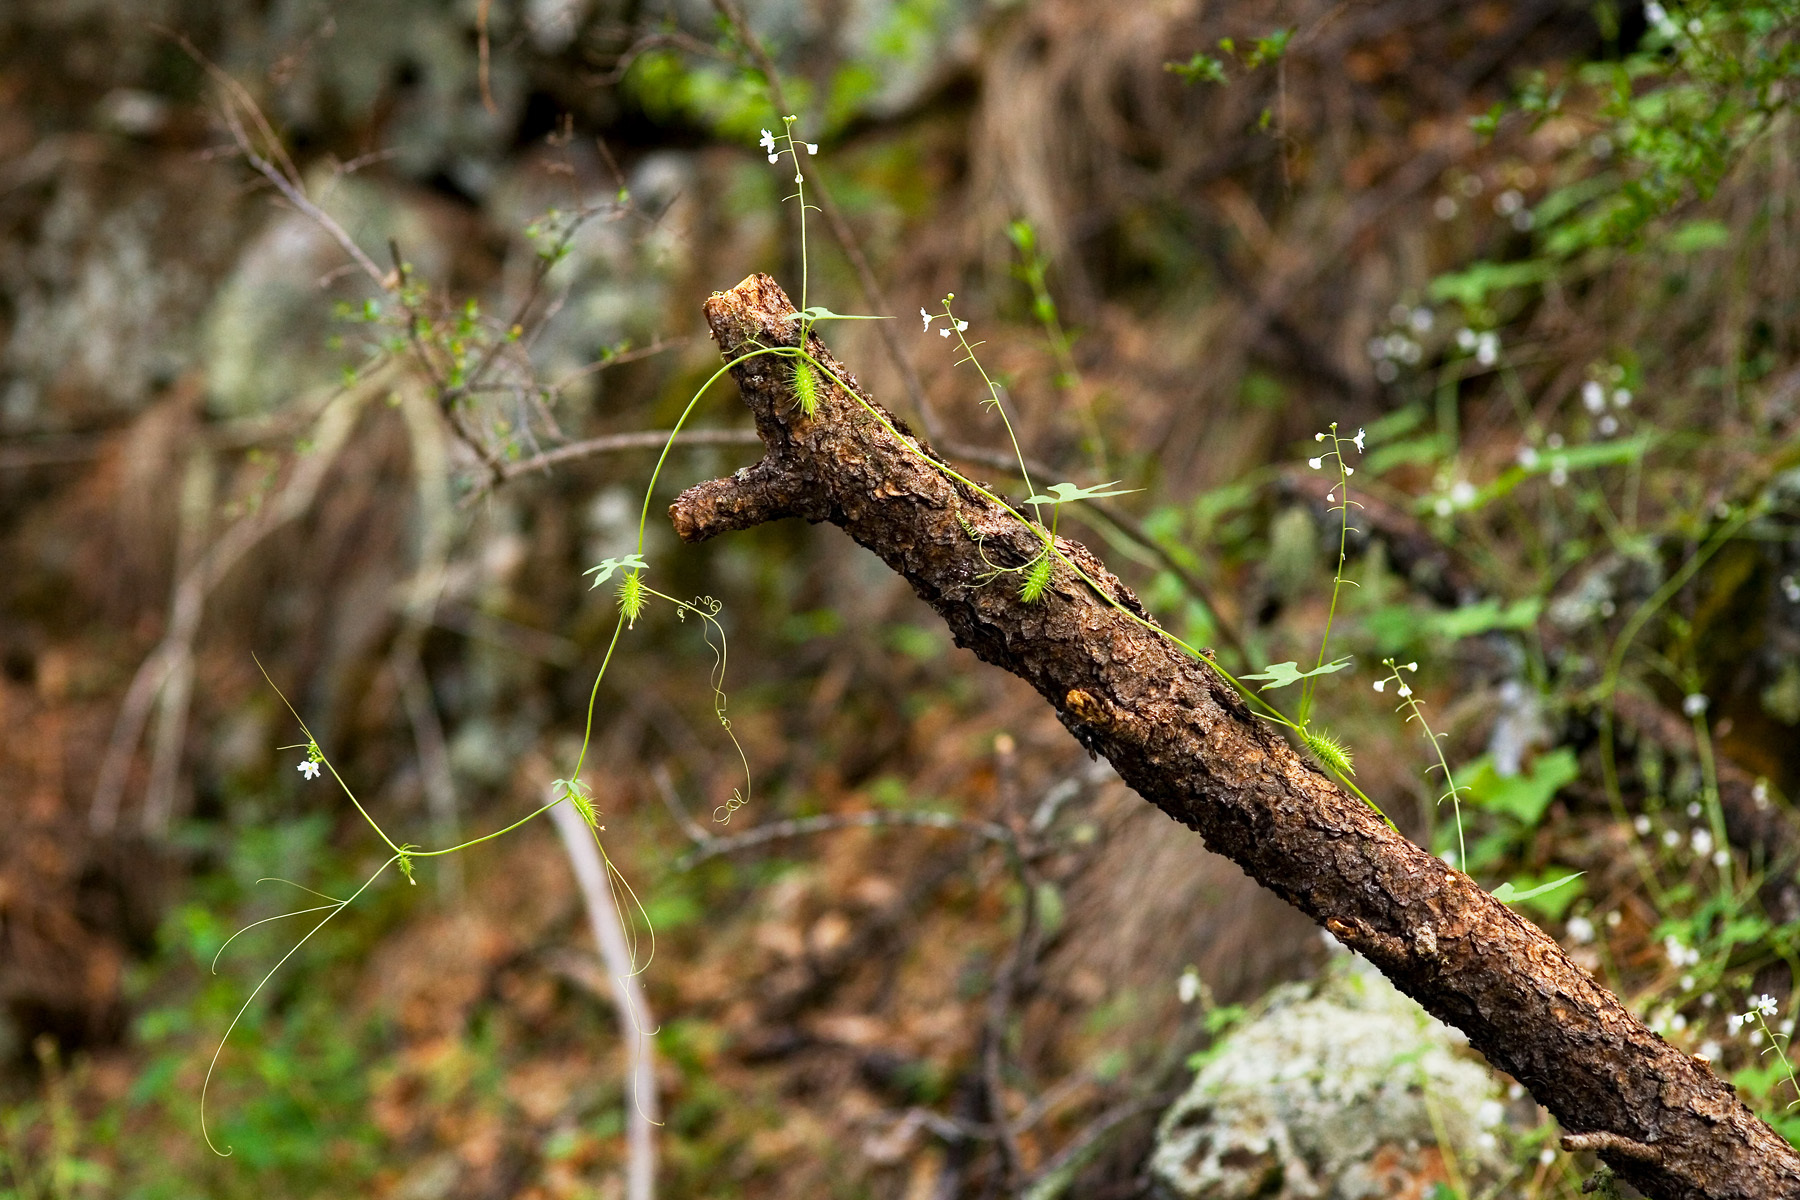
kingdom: Plantae
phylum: Tracheophyta
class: Magnoliopsida
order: Cucurbitales
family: Cucurbitaceae
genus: Echinopepon
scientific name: Echinopepon wrightii
